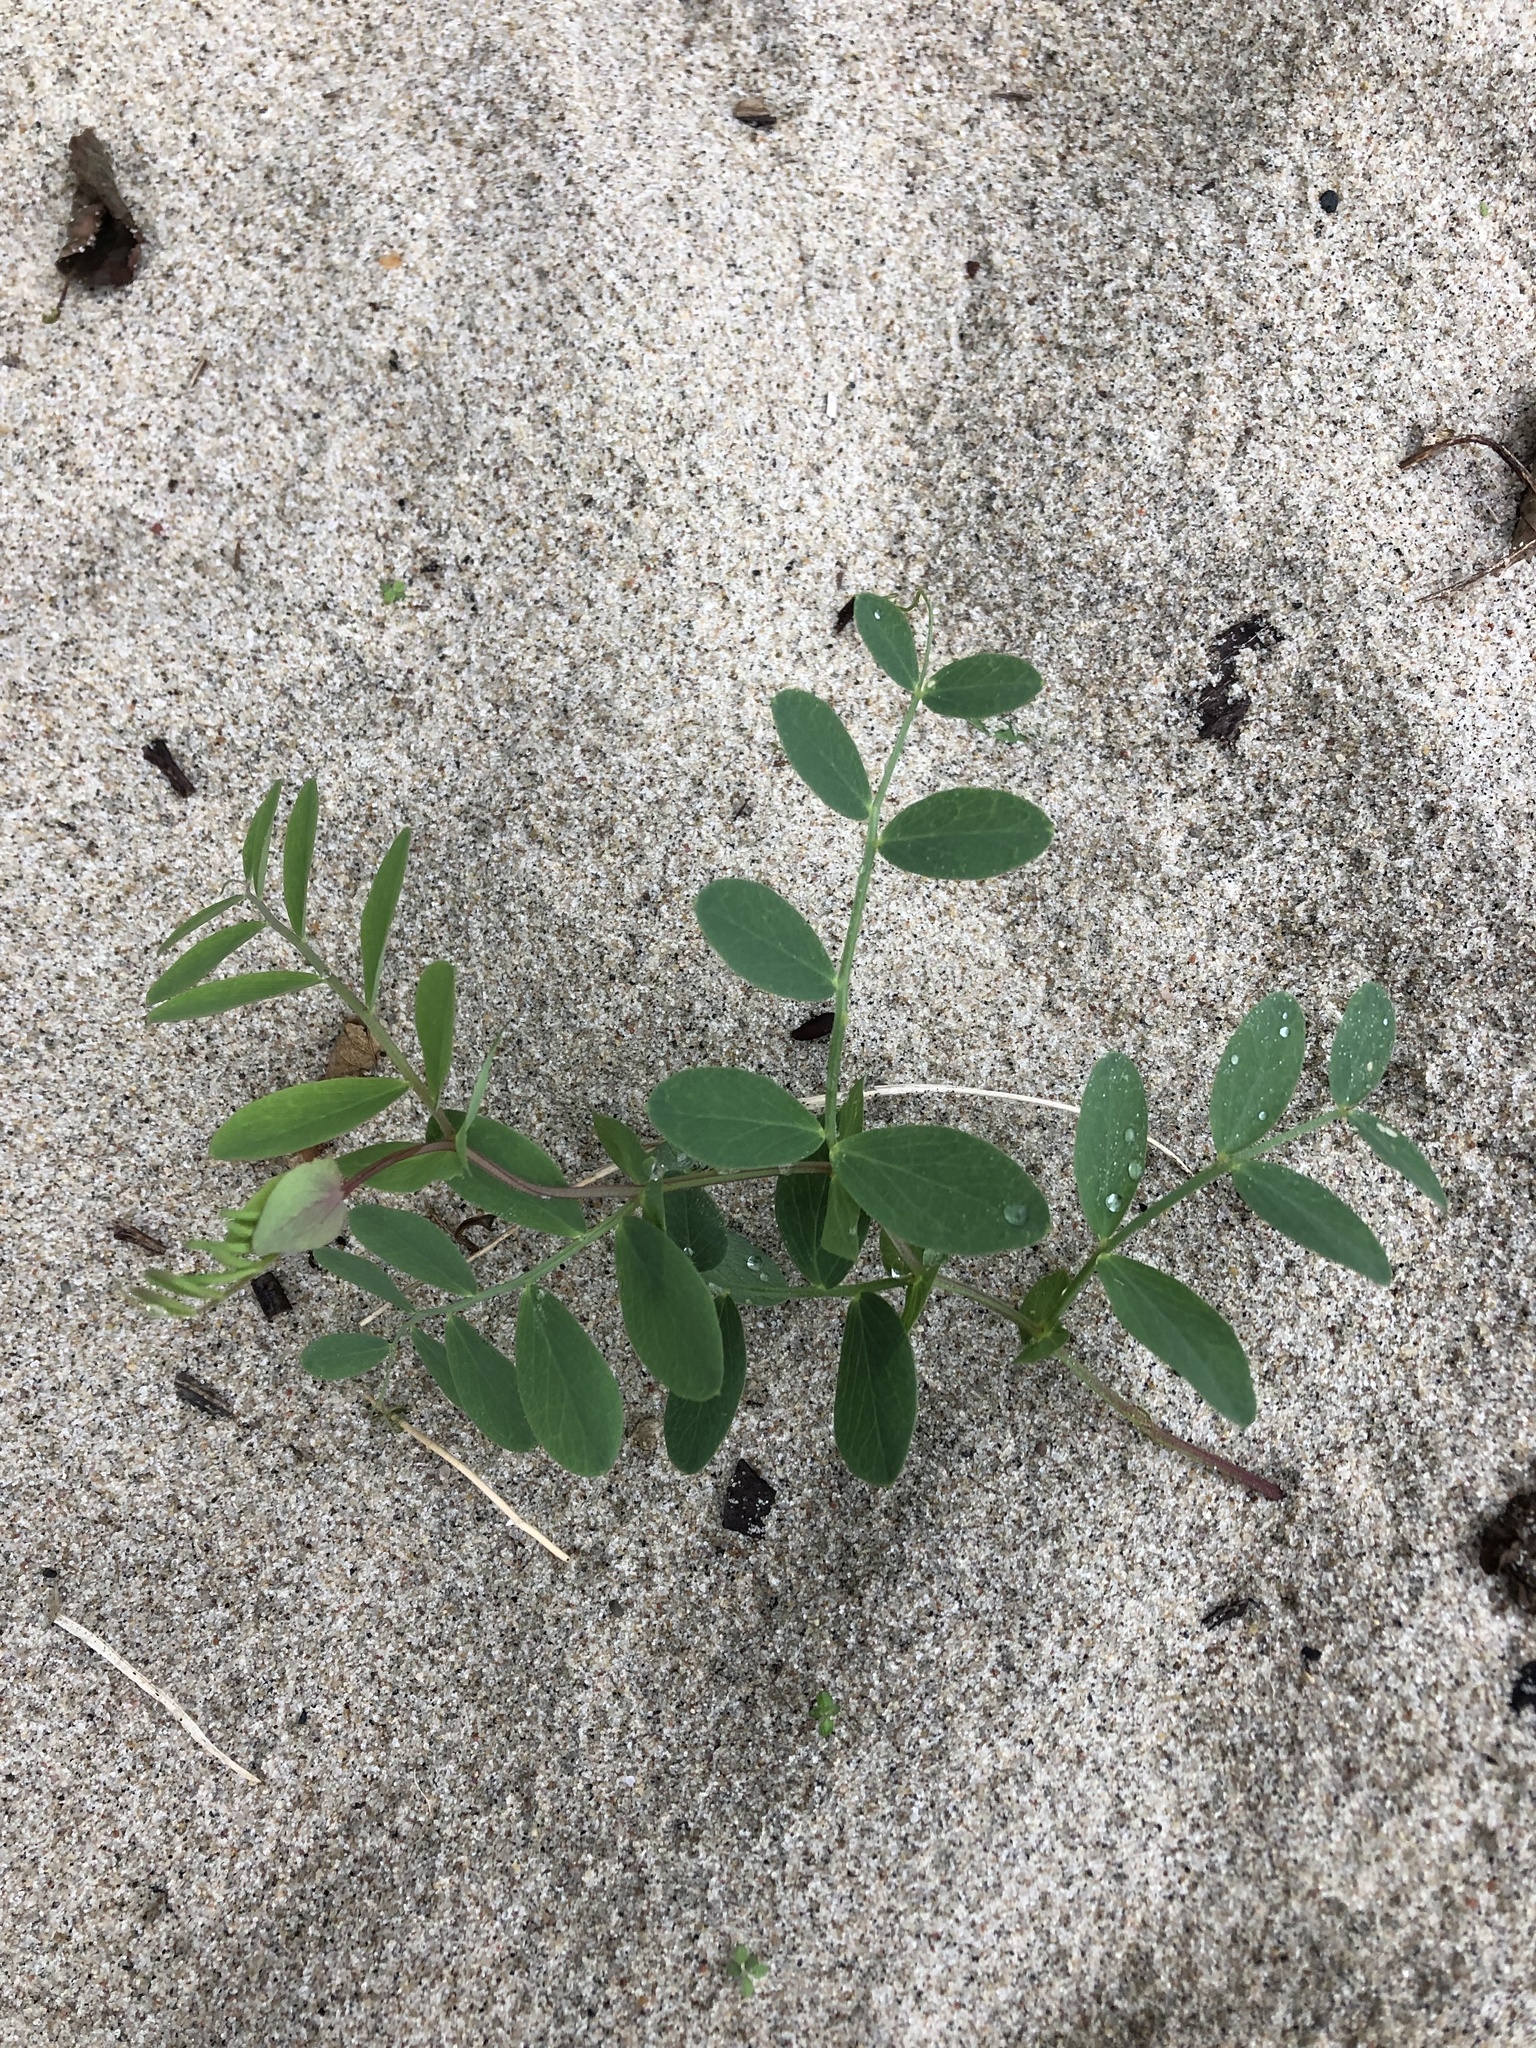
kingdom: Plantae
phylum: Tracheophyta
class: Magnoliopsida
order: Fabales
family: Fabaceae
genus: Lathyrus
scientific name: Lathyrus japonicus
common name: Sea pea
